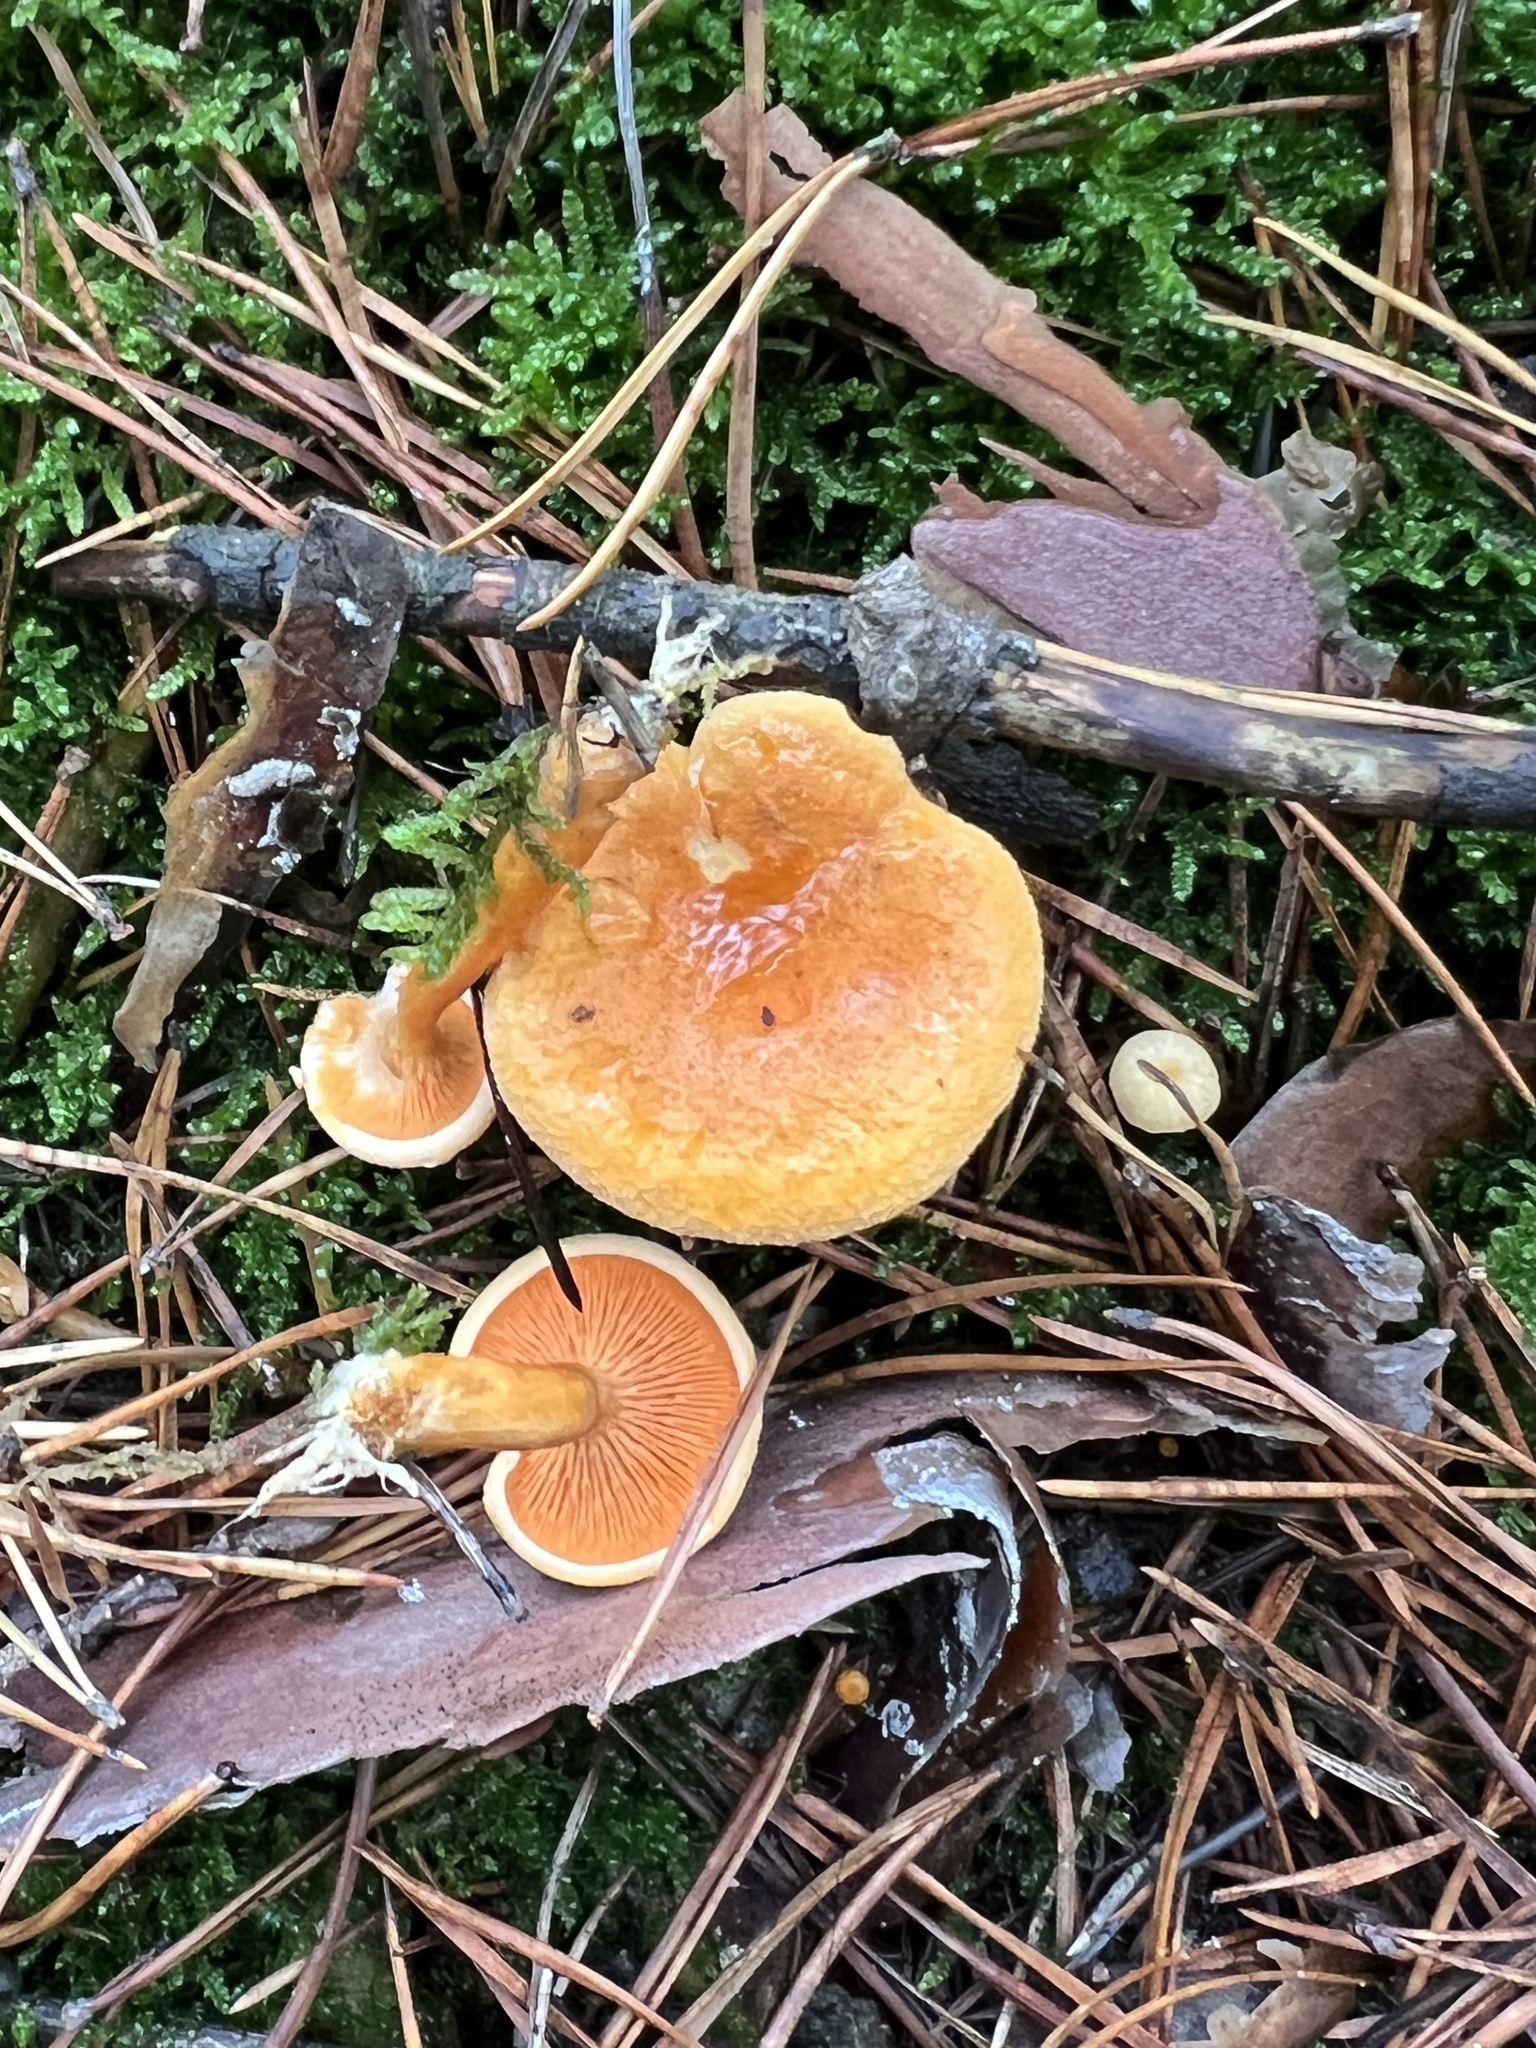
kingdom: Fungi
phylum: Basidiomycota
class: Agaricomycetes
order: Boletales
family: Hygrophoropsidaceae
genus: Hygrophoropsis
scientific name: Hygrophoropsis aurantiaca
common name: False chanterelle
